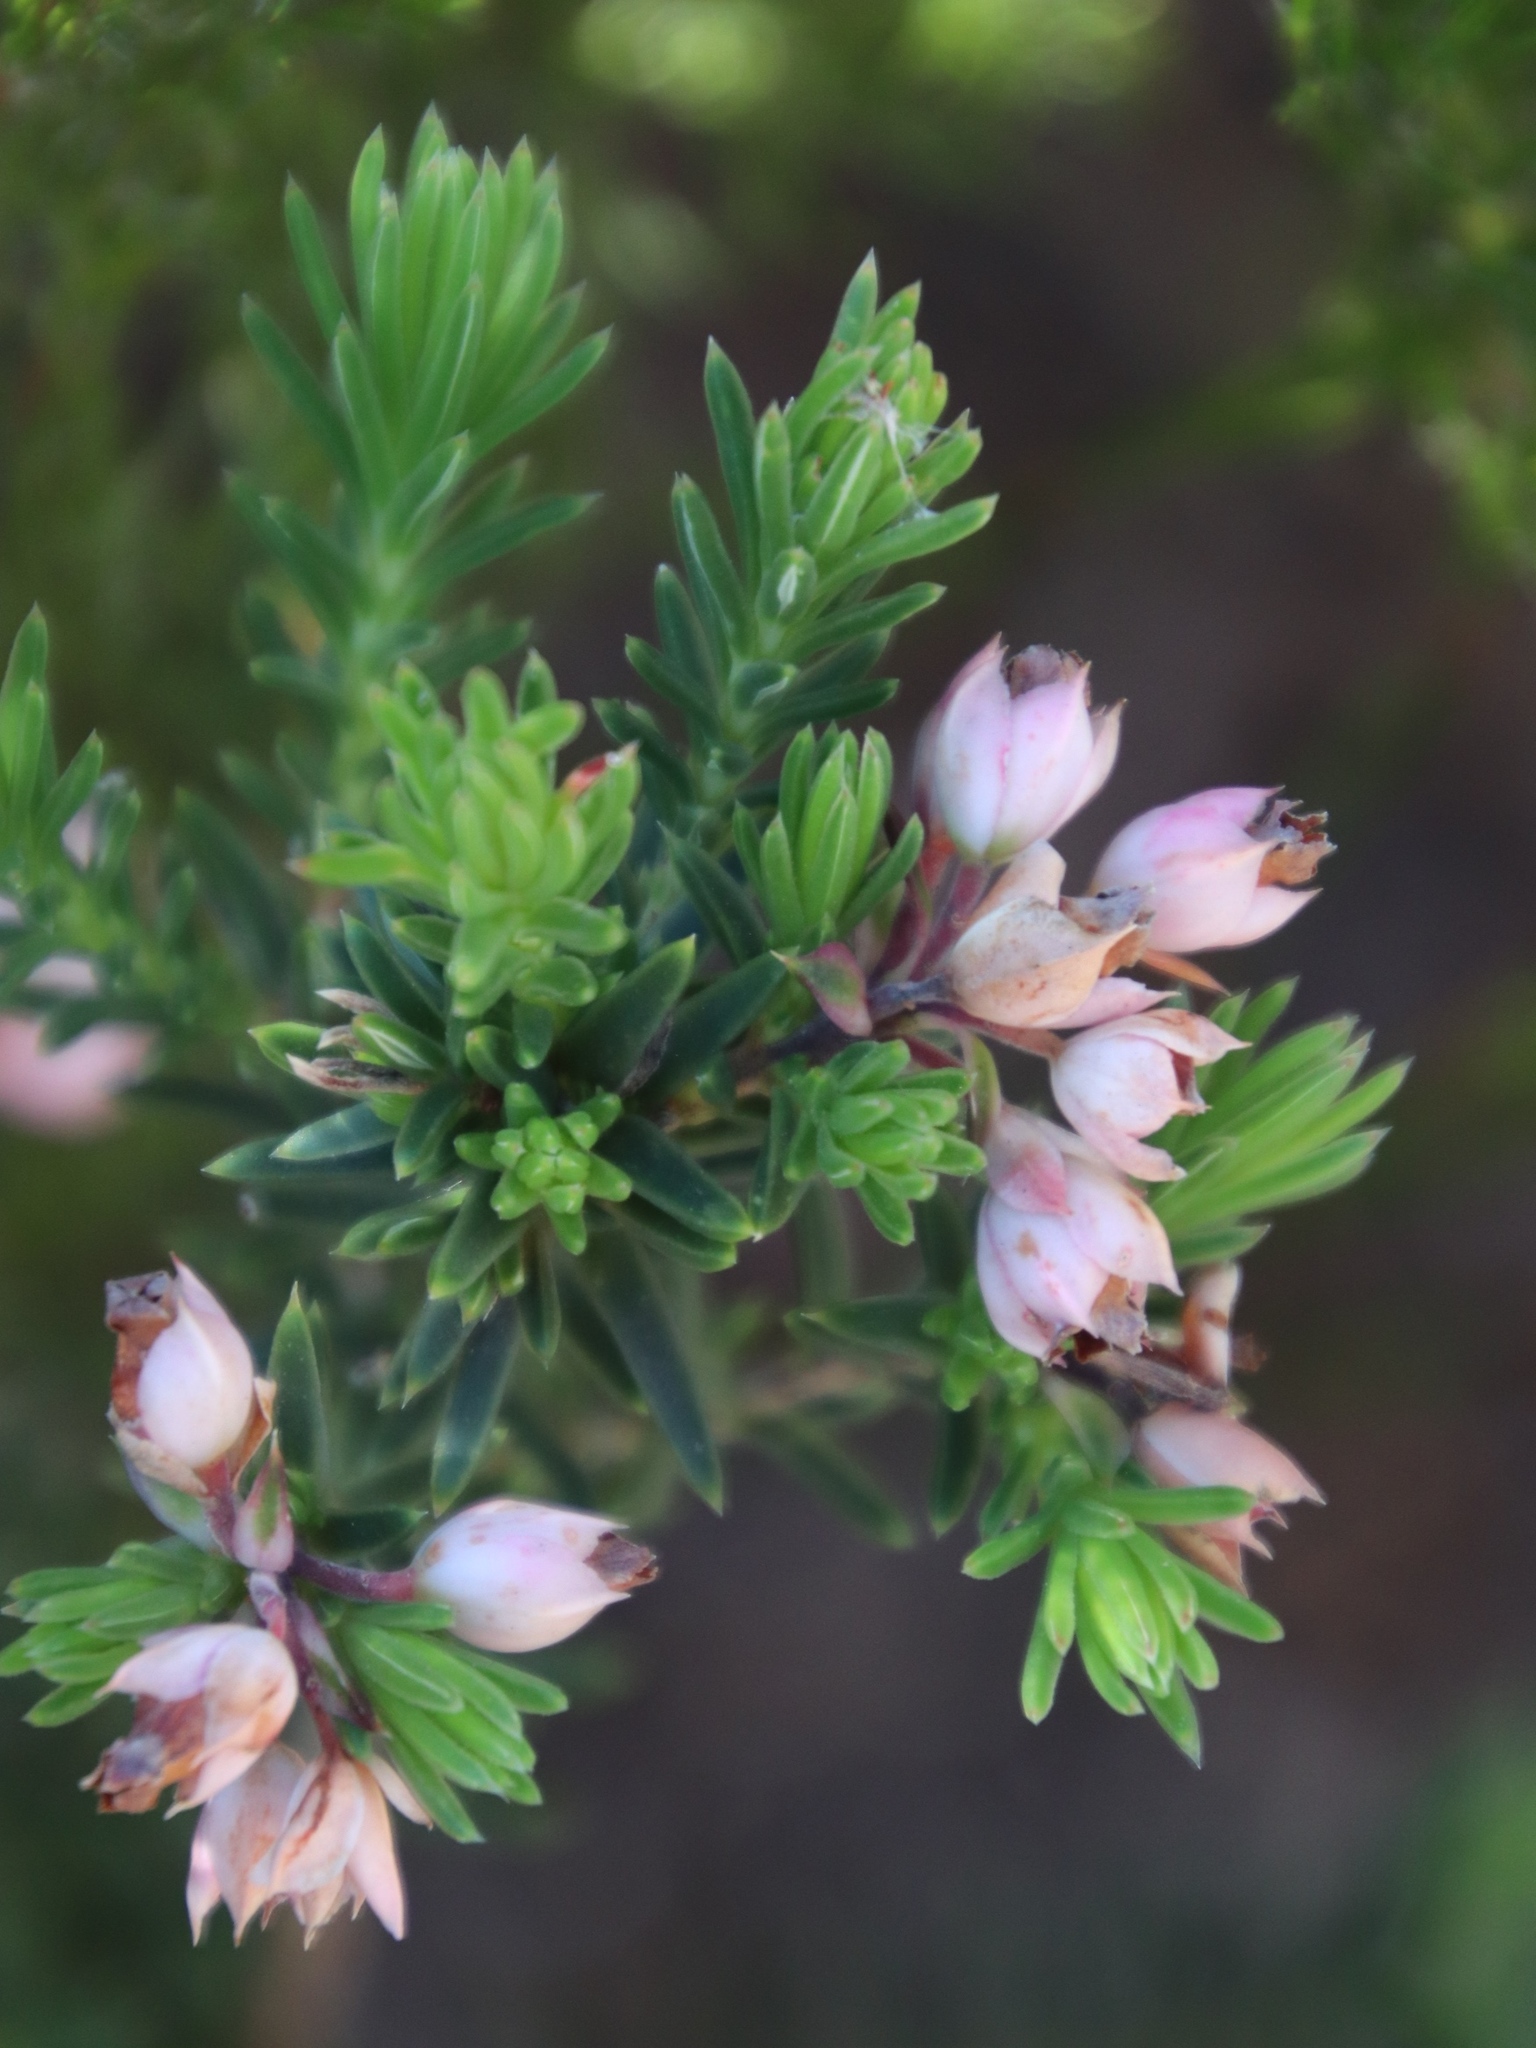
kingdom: Plantae
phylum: Tracheophyta
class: Magnoliopsida
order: Ericales
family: Ericaceae
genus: Erica
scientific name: Erica taxifolia
